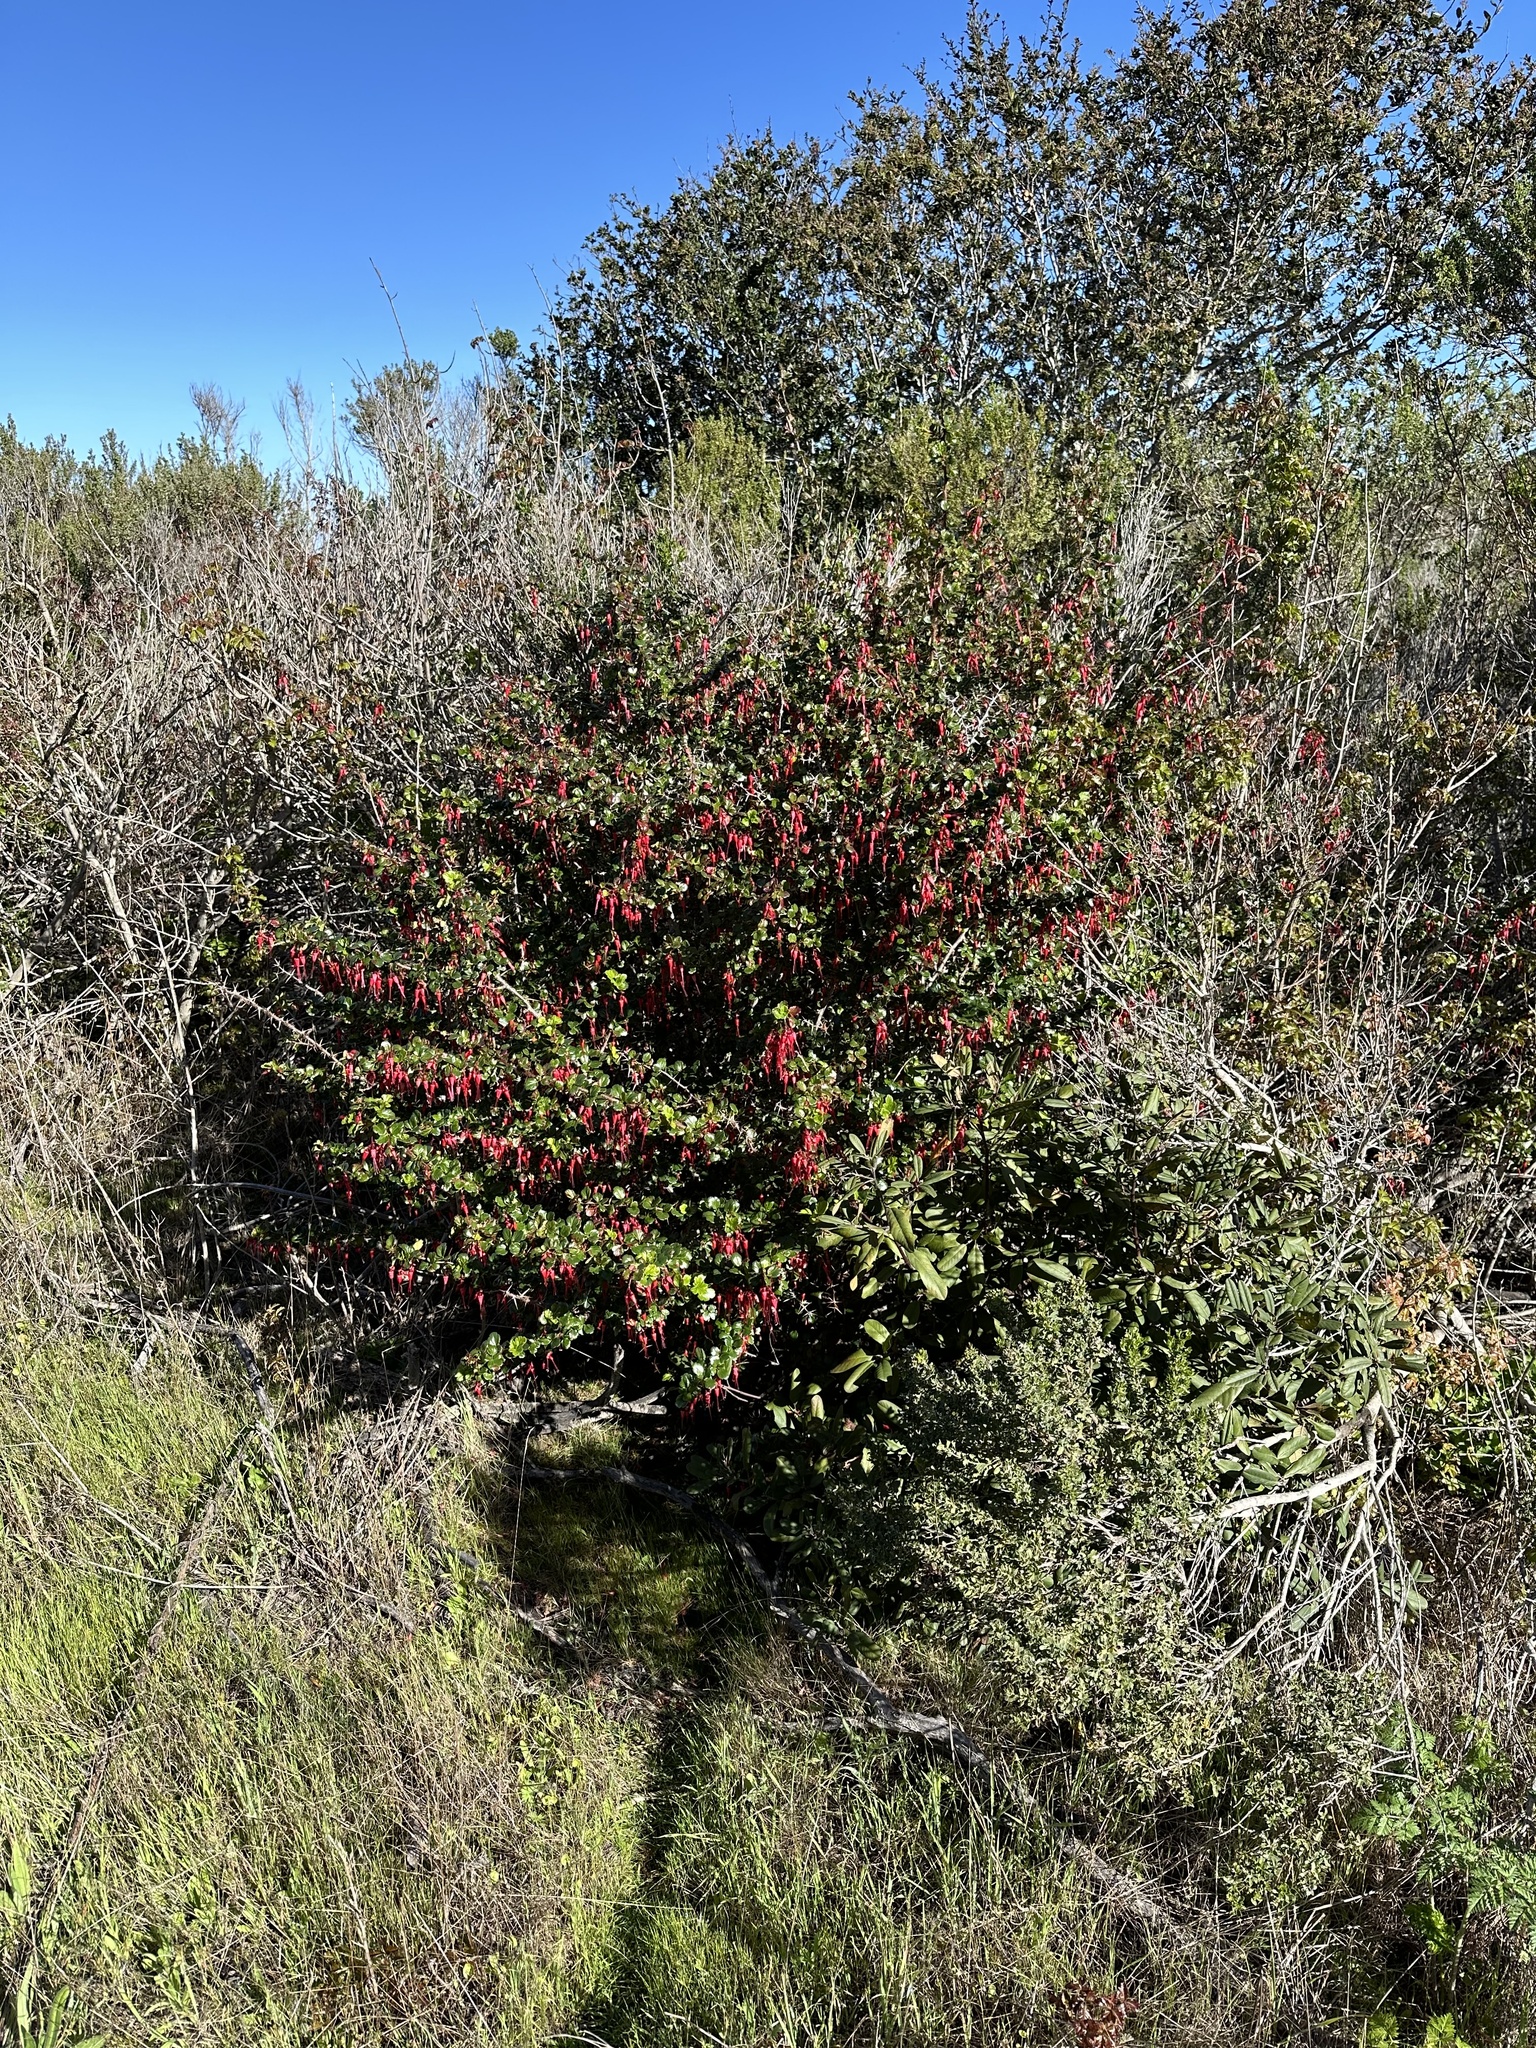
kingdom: Plantae
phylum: Tracheophyta
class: Magnoliopsida
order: Saxifragales
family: Grossulariaceae
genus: Ribes
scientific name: Ribes speciosum
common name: Fuchsia-flower gooseberry
